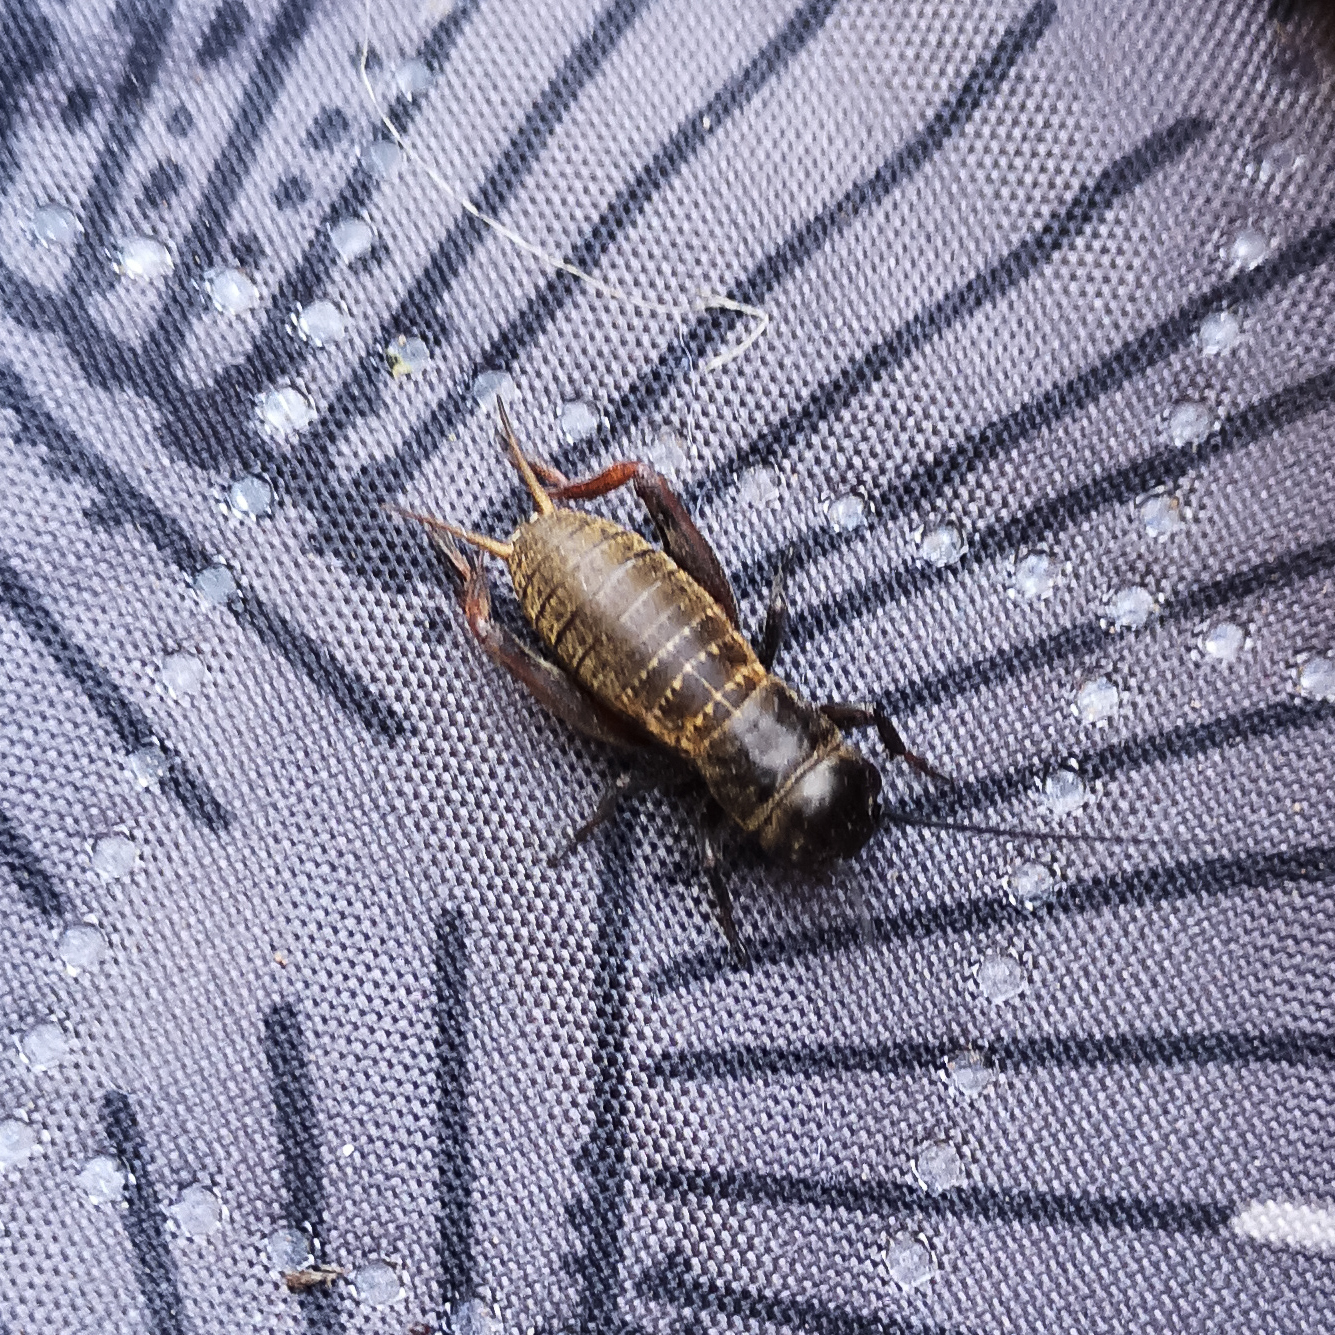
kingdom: Animalia
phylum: Arthropoda
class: Insecta
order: Orthoptera
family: Gryllidae
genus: Gryllus
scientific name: Gryllus campestris
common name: Field cricket
